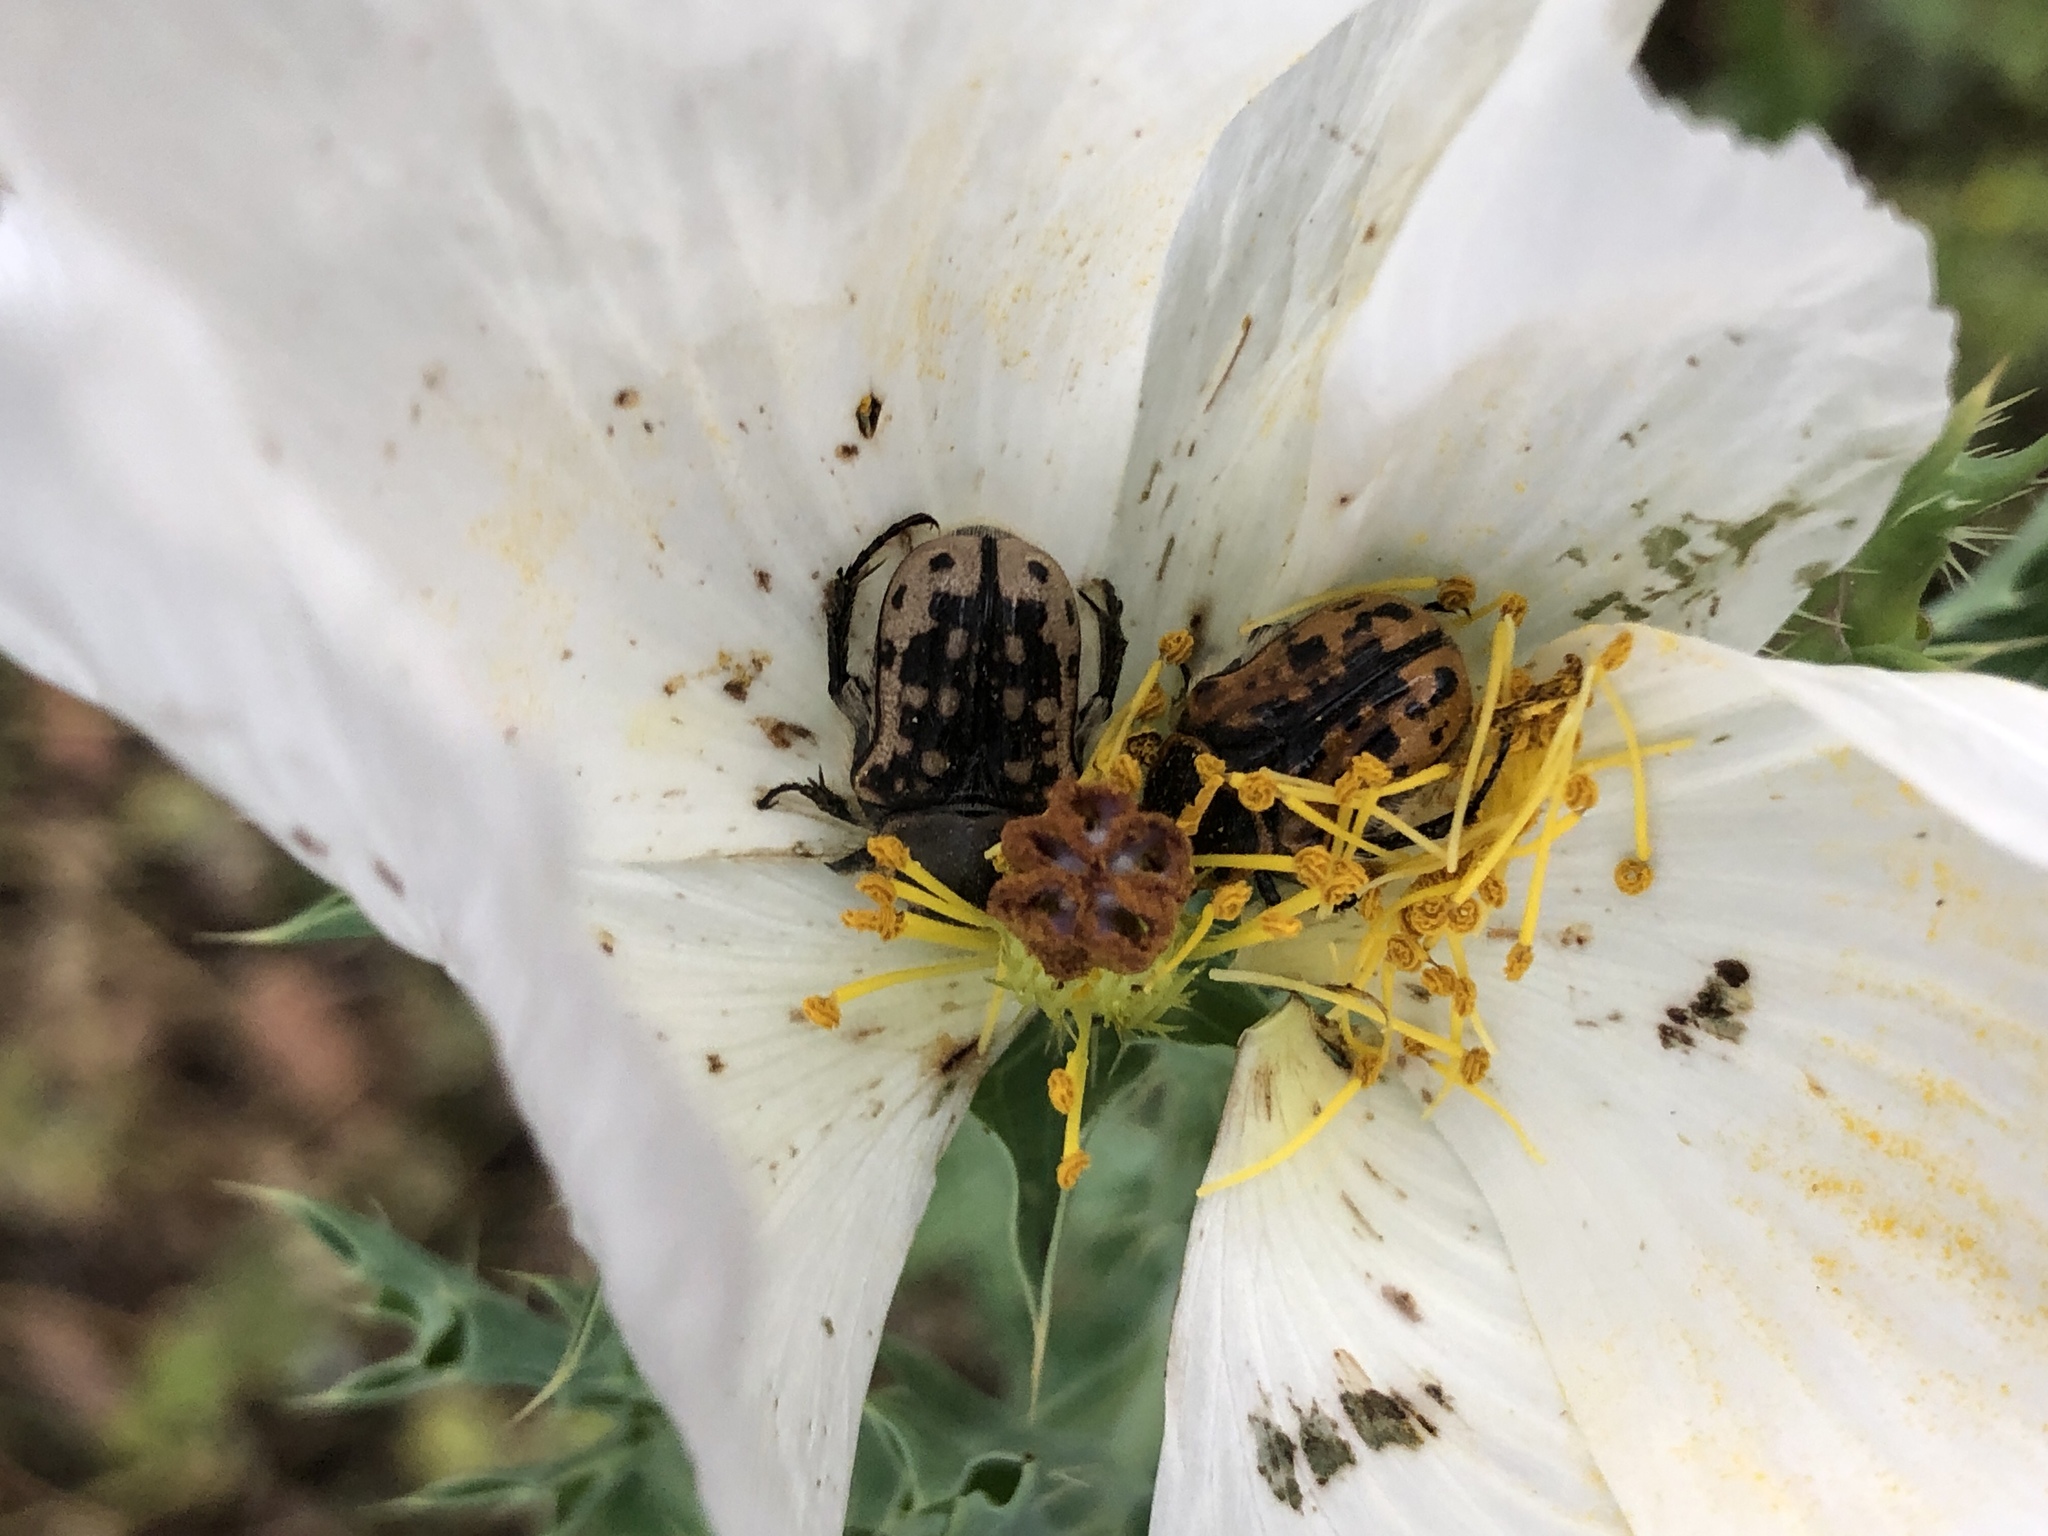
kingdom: Animalia
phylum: Arthropoda
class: Insecta
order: Coleoptera
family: Scarabaeidae
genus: Euphoria
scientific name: Euphoria kernii
